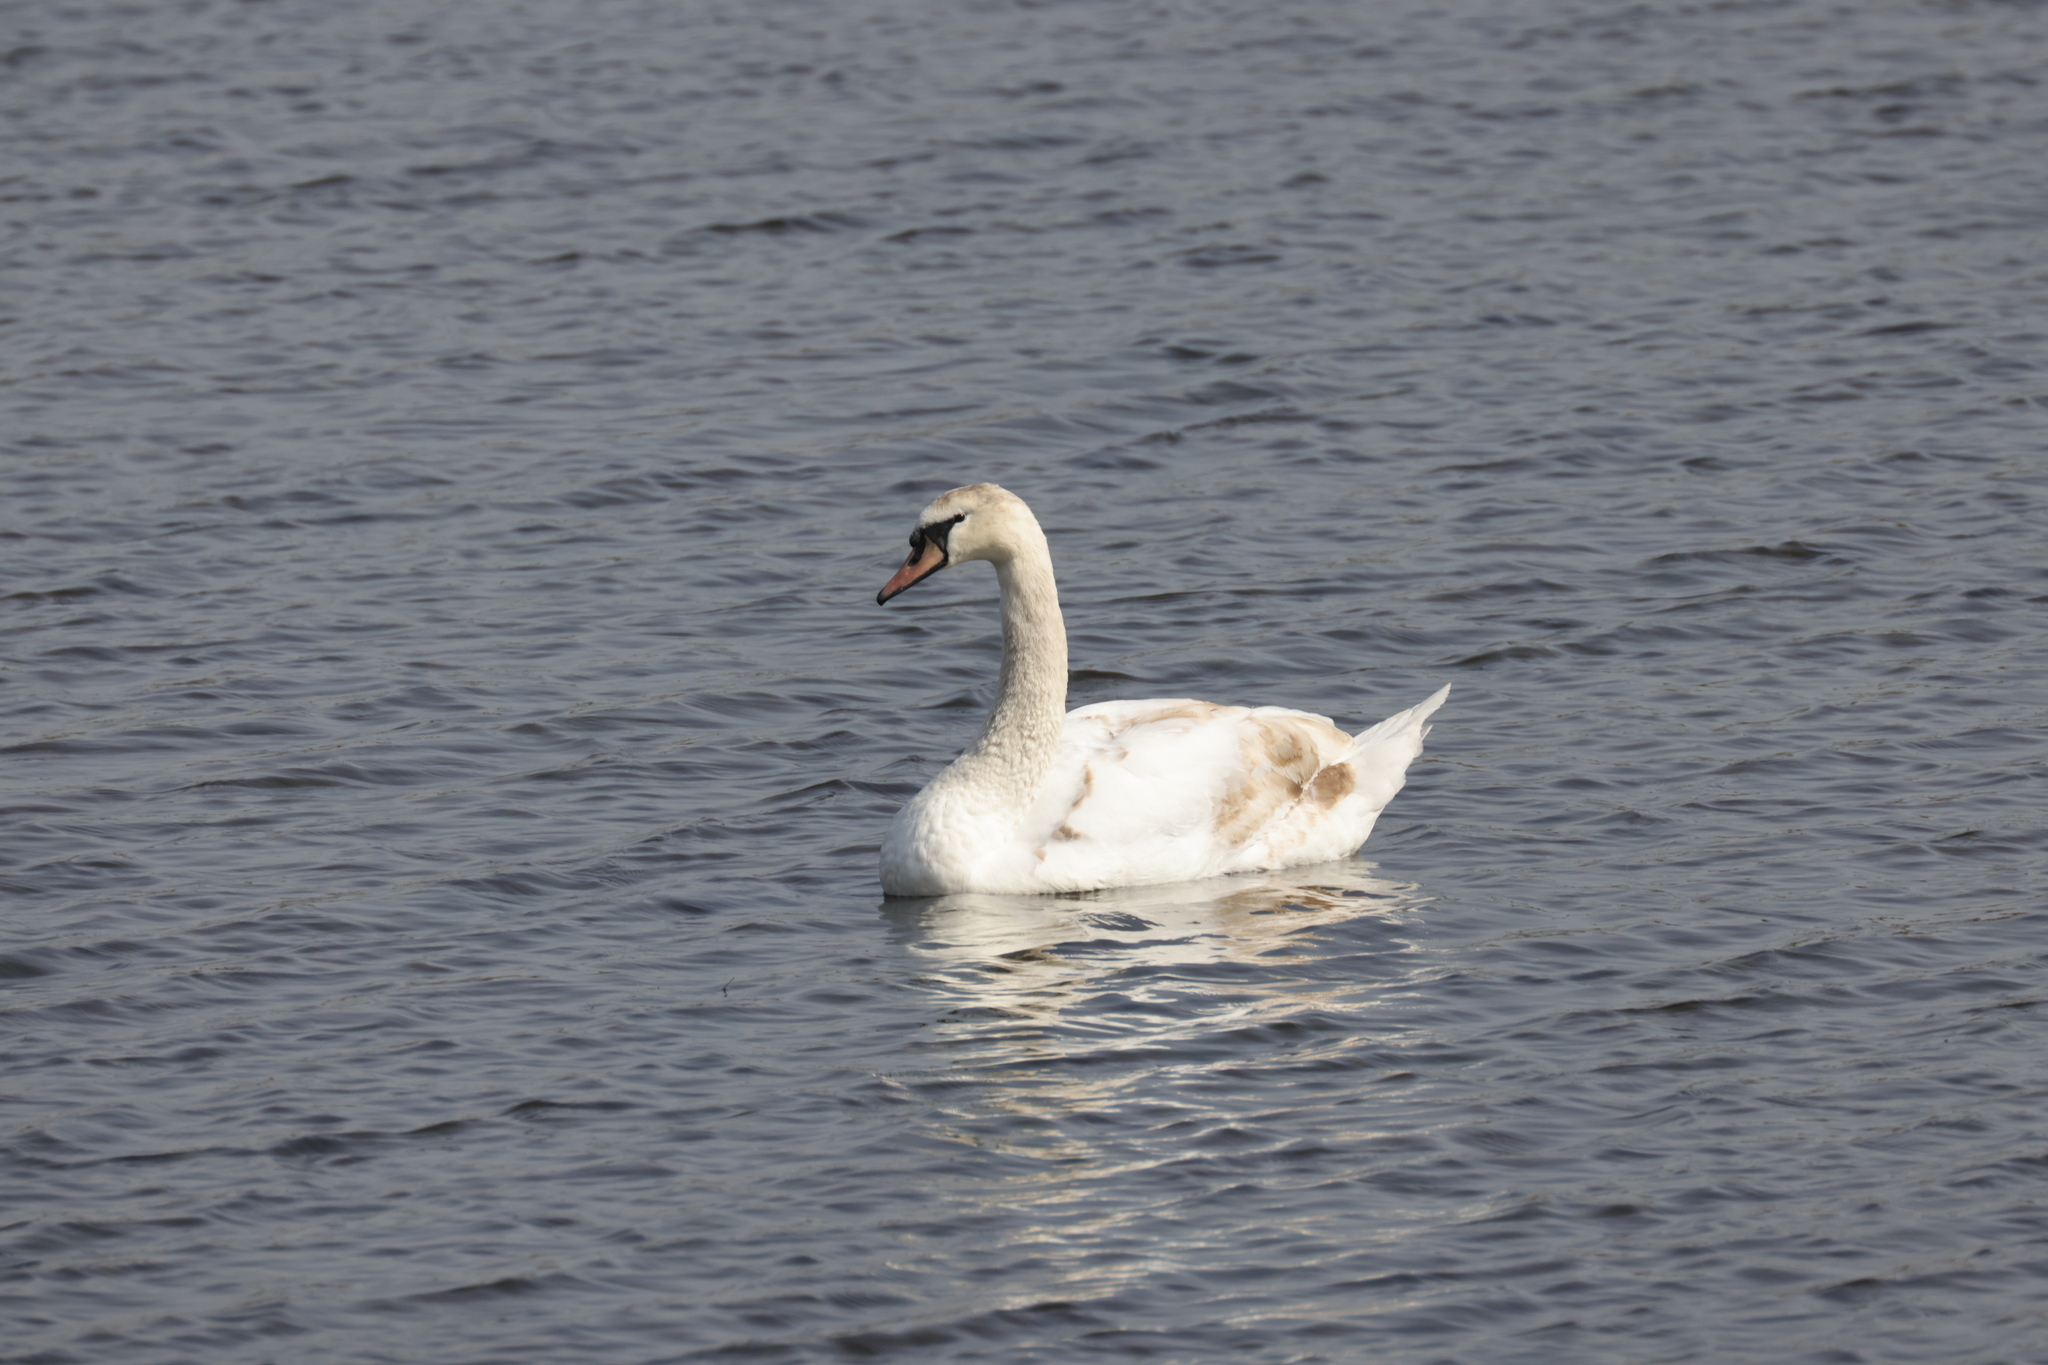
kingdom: Animalia
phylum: Chordata
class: Aves
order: Anseriformes
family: Anatidae
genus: Cygnus
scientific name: Cygnus olor
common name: Mute swan
